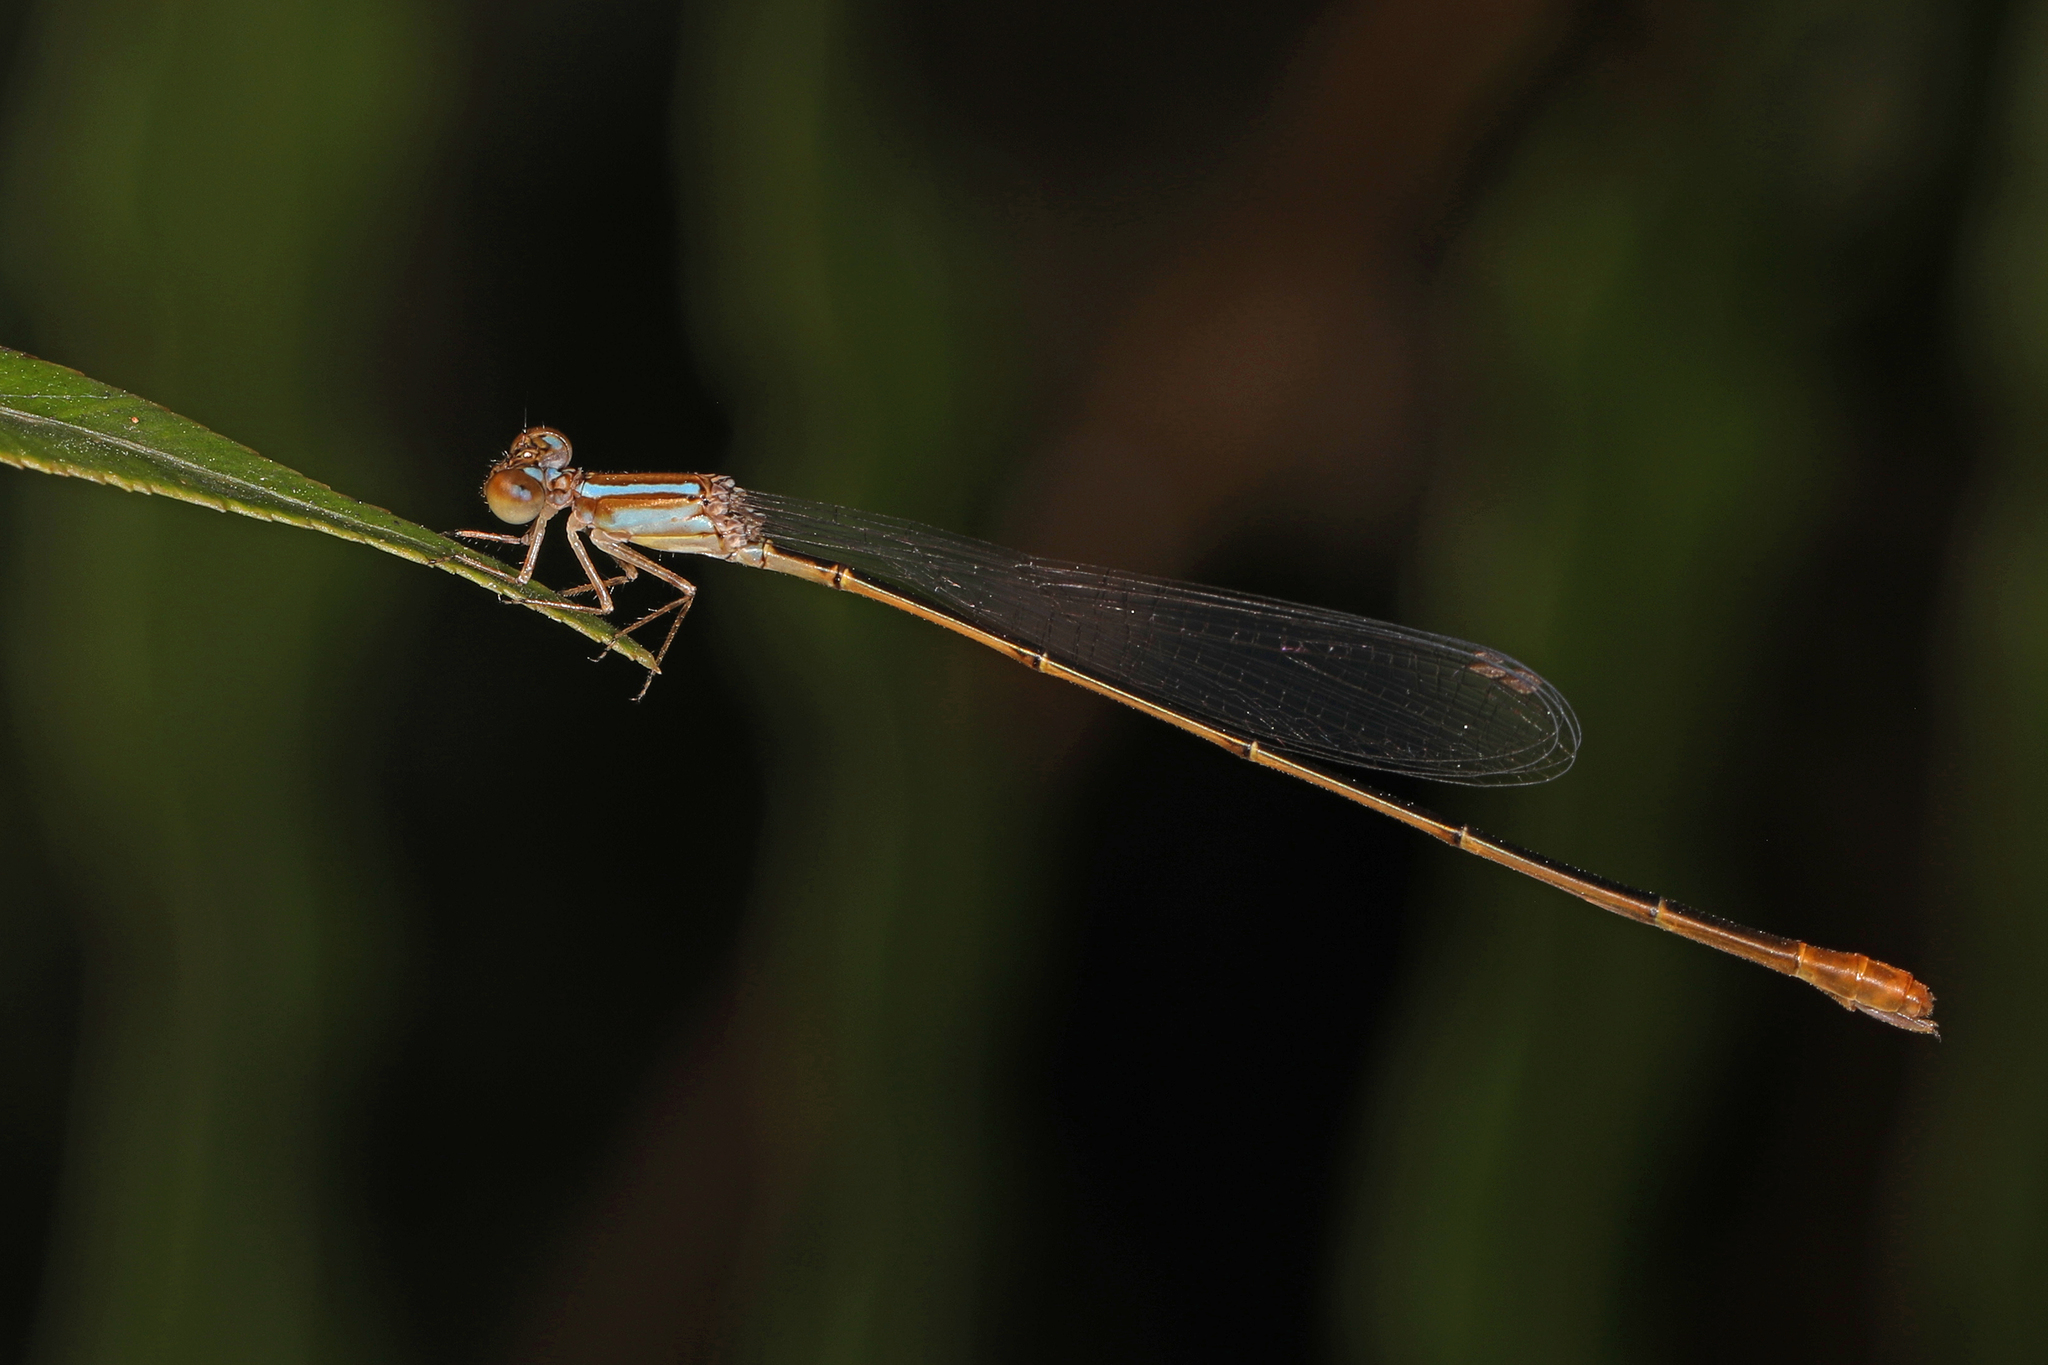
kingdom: Animalia
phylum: Arthropoda
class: Insecta
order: Odonata
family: Coenagrionidae
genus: Leptobasis
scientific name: Leptobasis lucifer
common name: Lucifer swampdamsel
